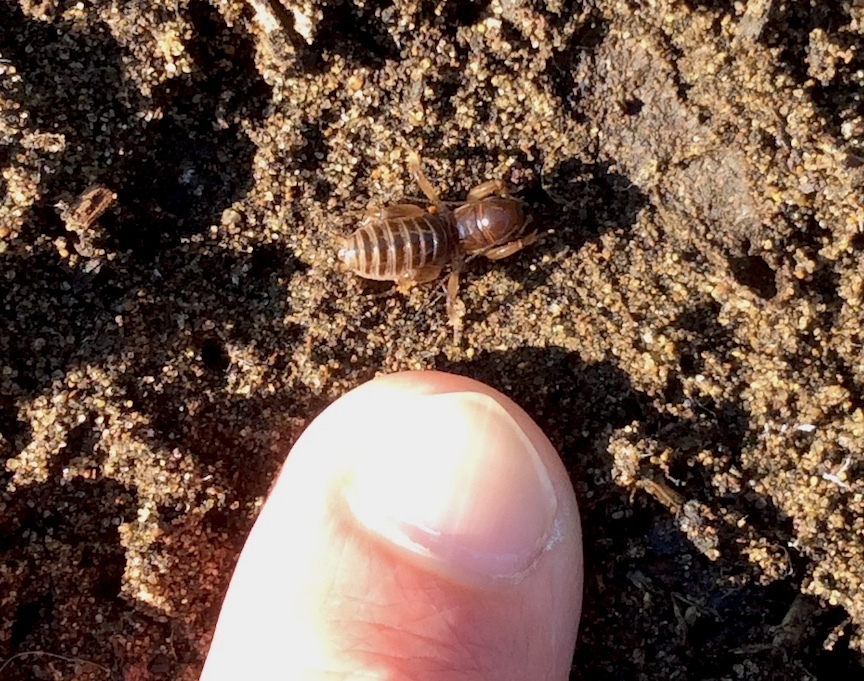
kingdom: Animalia
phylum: Arthropoda
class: Insecta
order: Orthoptera
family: Stenopelmatidae
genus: Ammopelmatus
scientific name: Ammopelmatus
